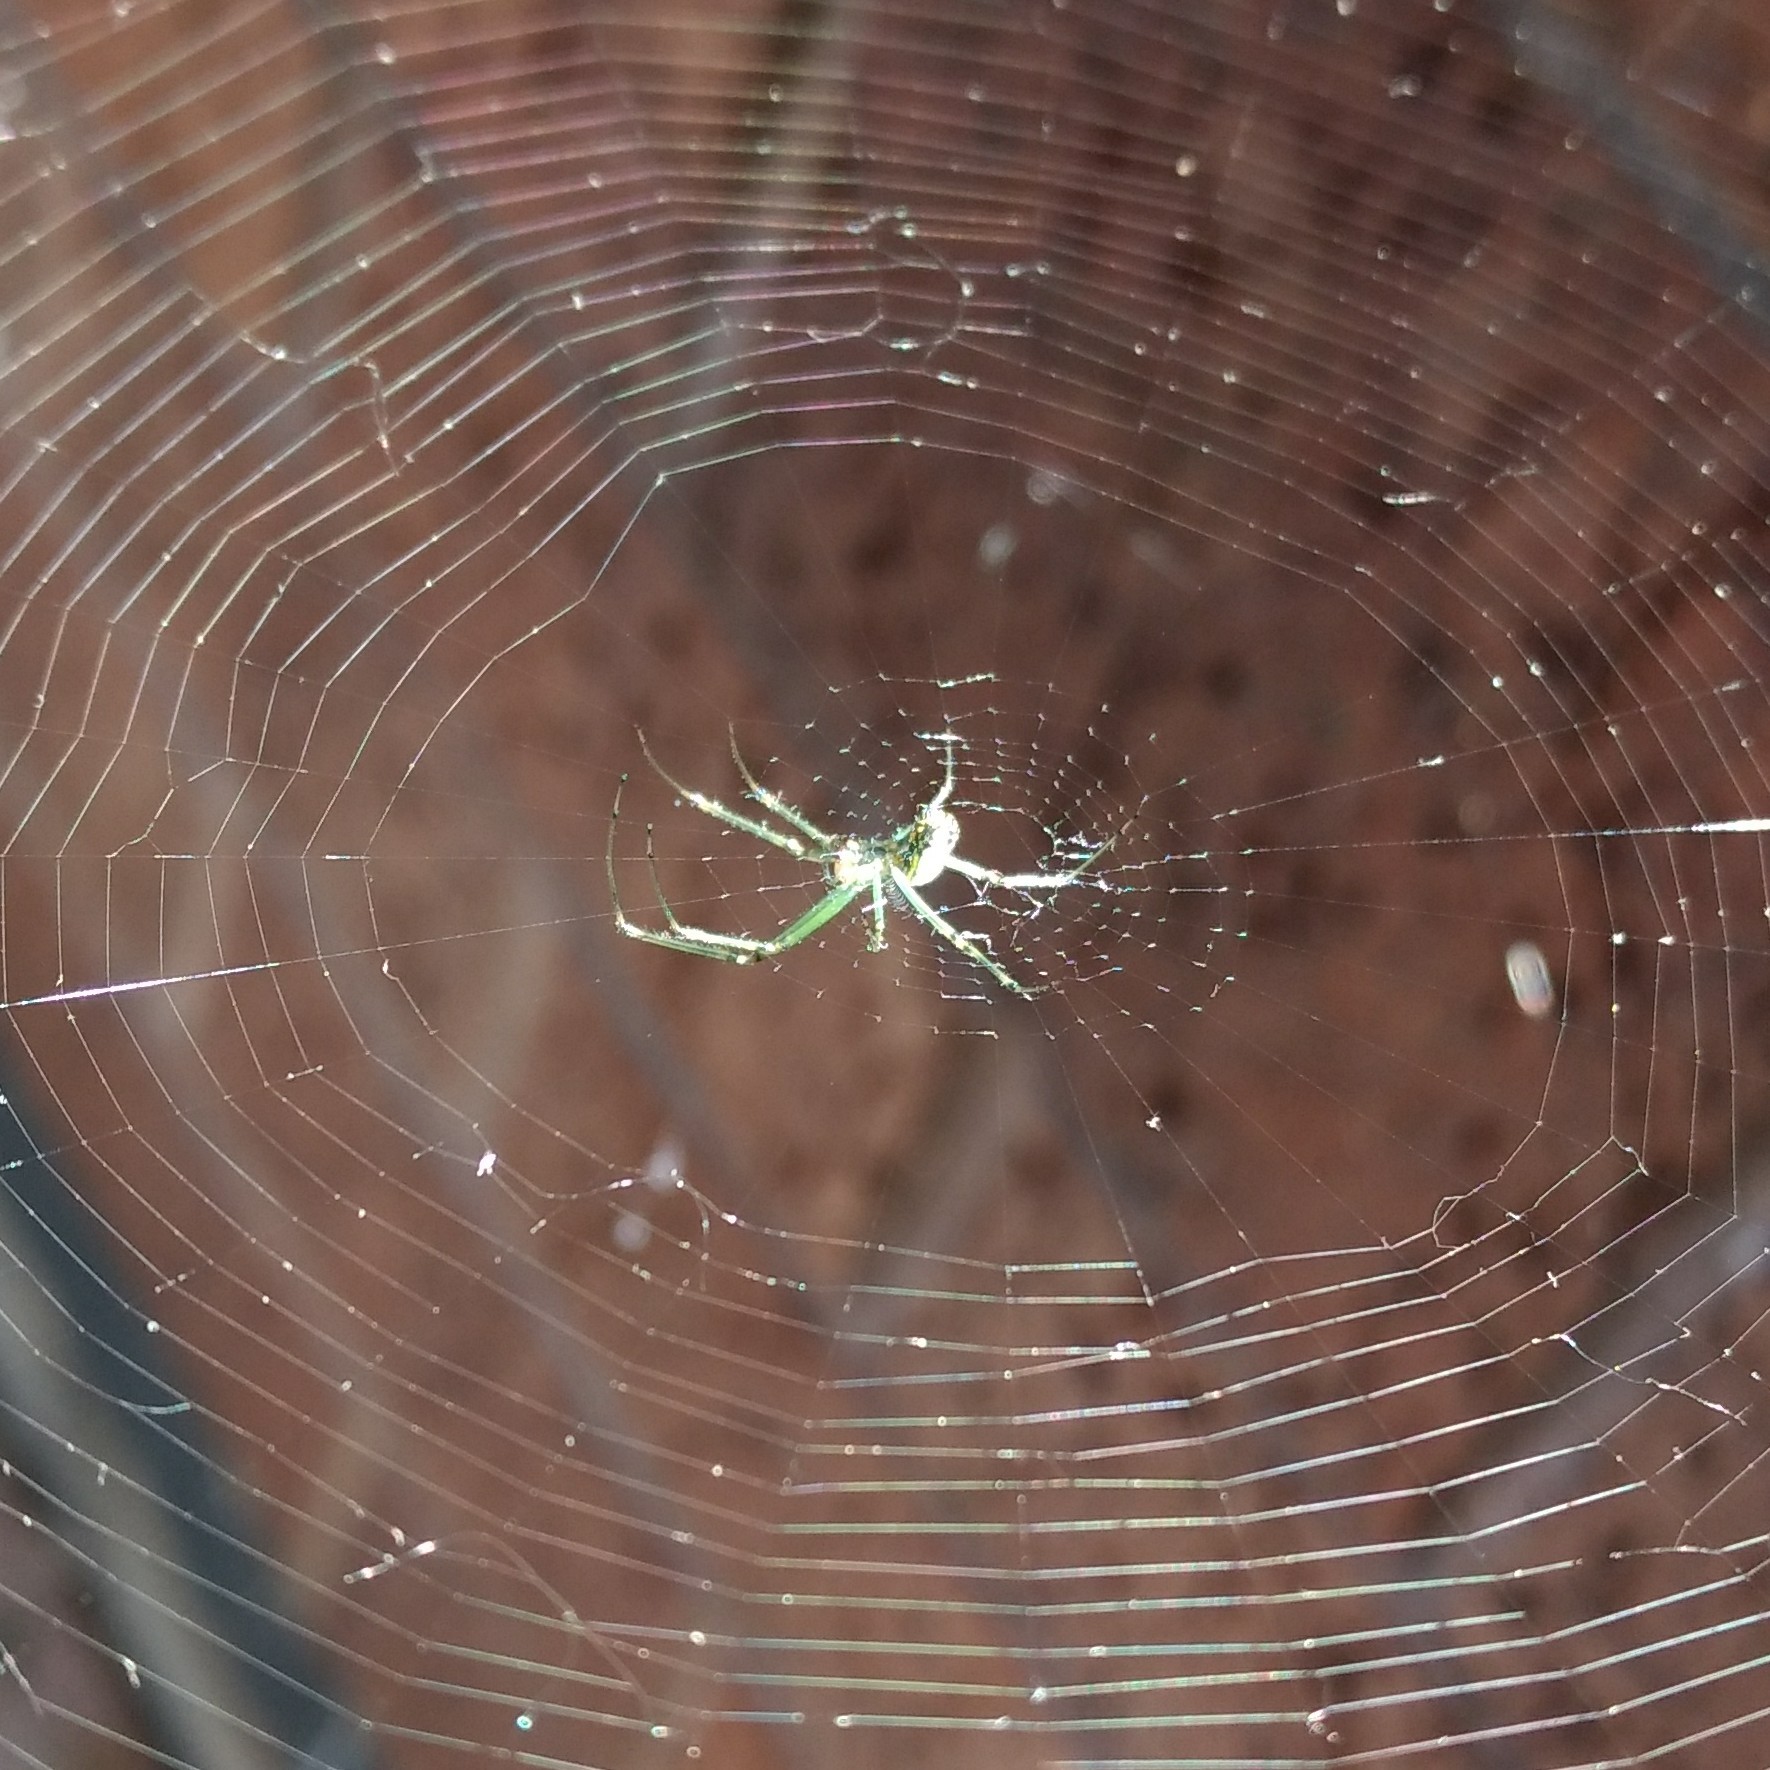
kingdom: Animalia
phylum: Arthropoda
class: Arachnida
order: Araneae
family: Tetragnathidae
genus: Leucauge
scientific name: Leucauge venusta
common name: Longjawed orb weavers
